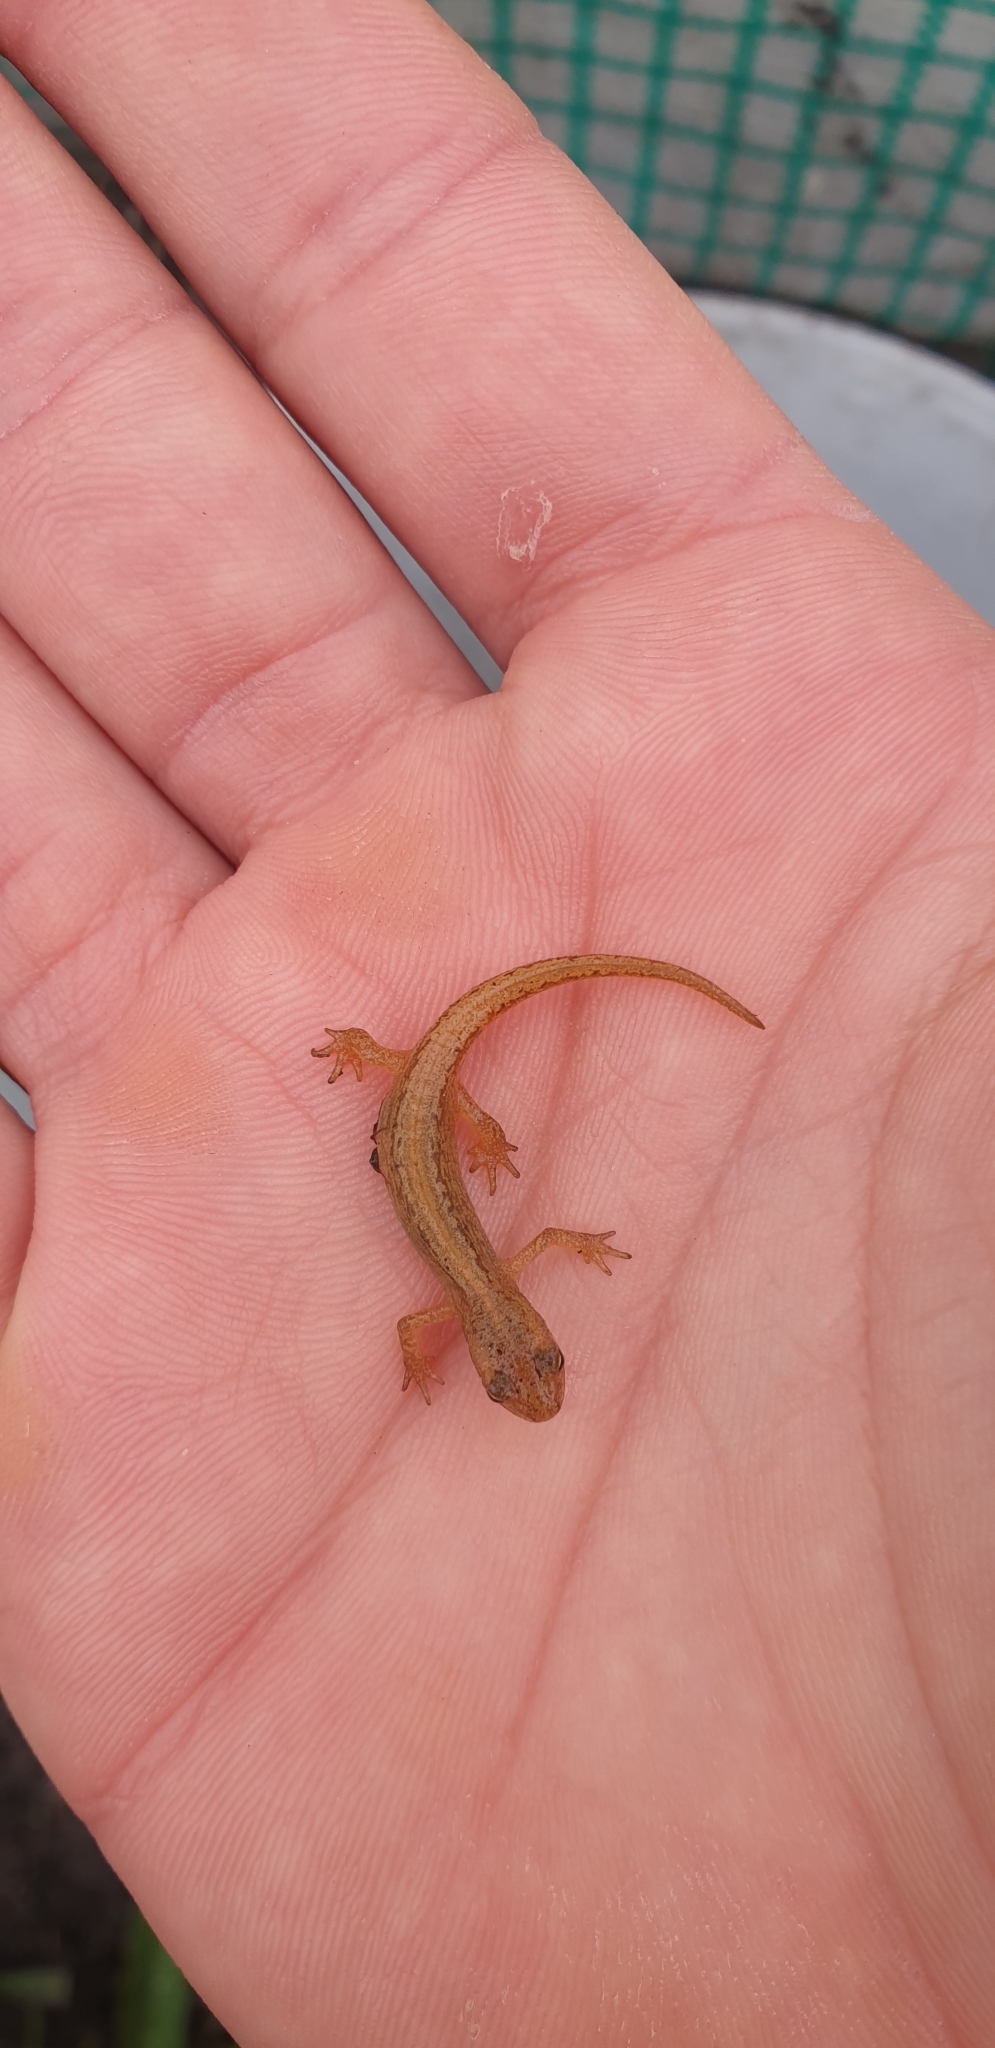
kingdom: Animalia
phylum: Chordata
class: Amphibia
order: Caudata
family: Salamandridae
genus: Lissotriton
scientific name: Lissotriton vulgaris
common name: Smooth newt
